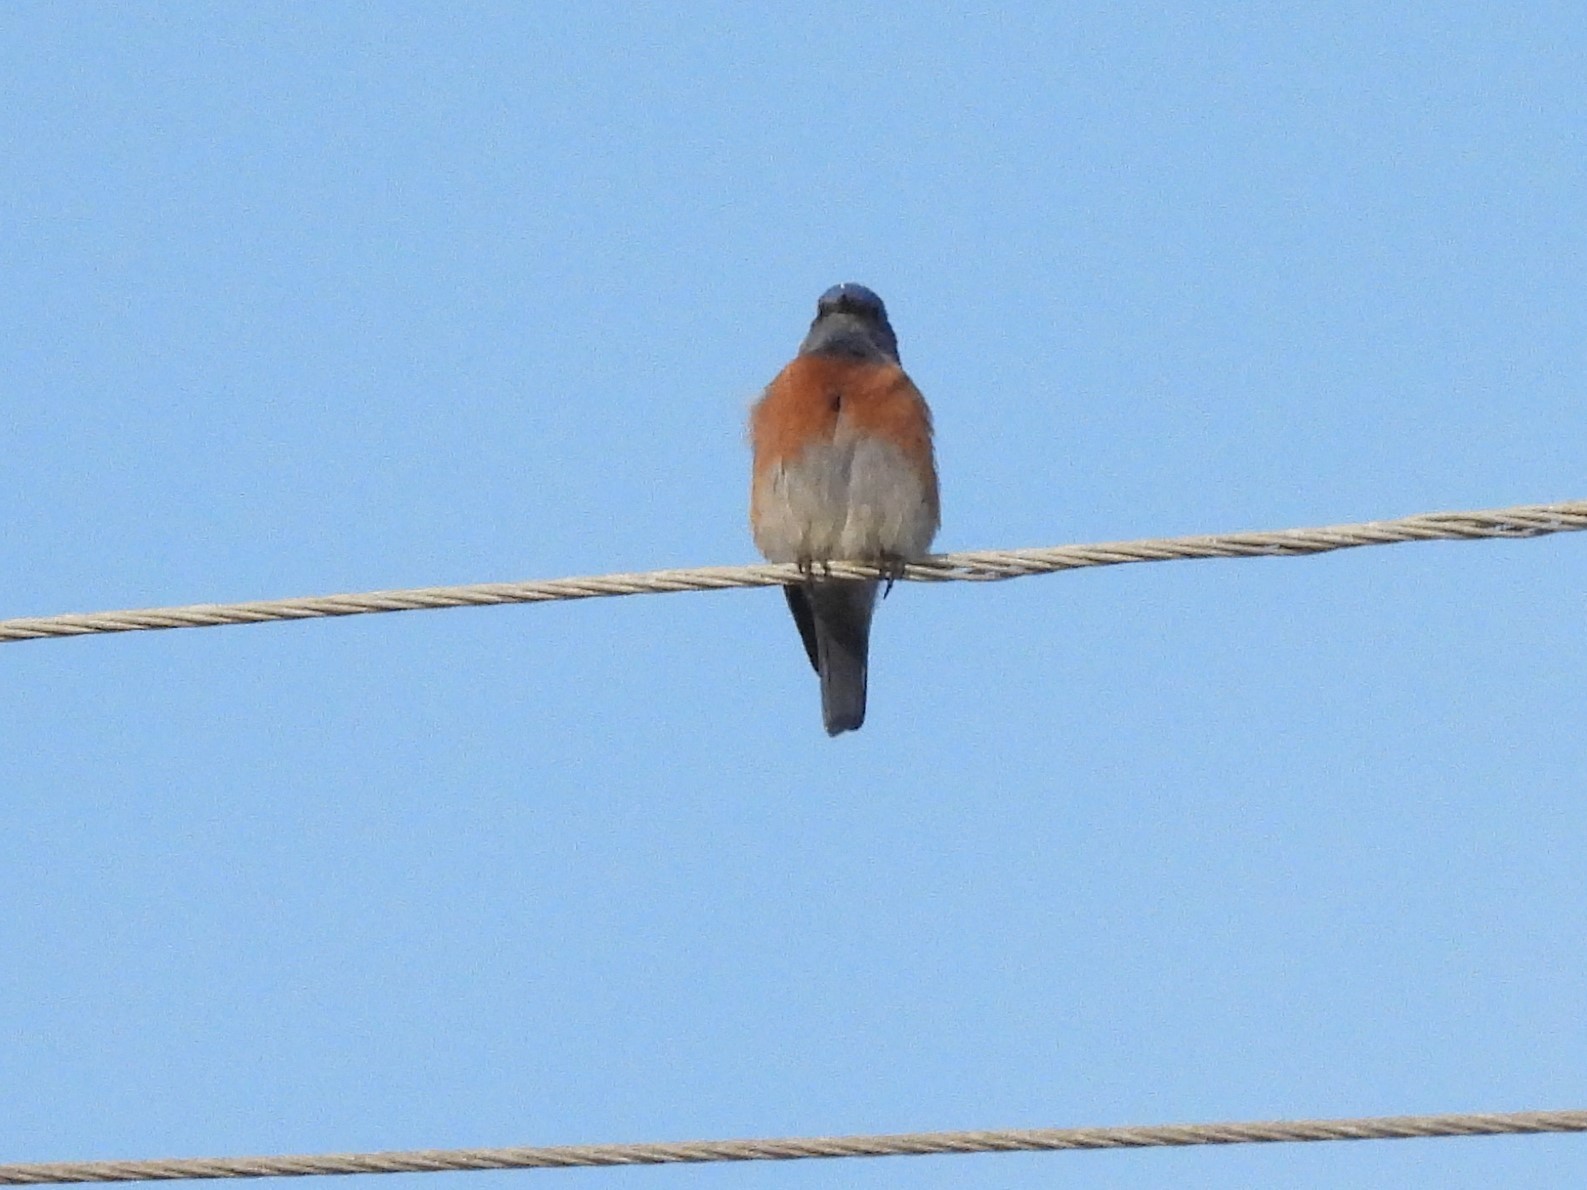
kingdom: Animalia
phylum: Chordata
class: Aves
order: Passeriformes
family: Turdidae
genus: Sialia
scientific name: Sialia mexicana
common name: Western bluebird
